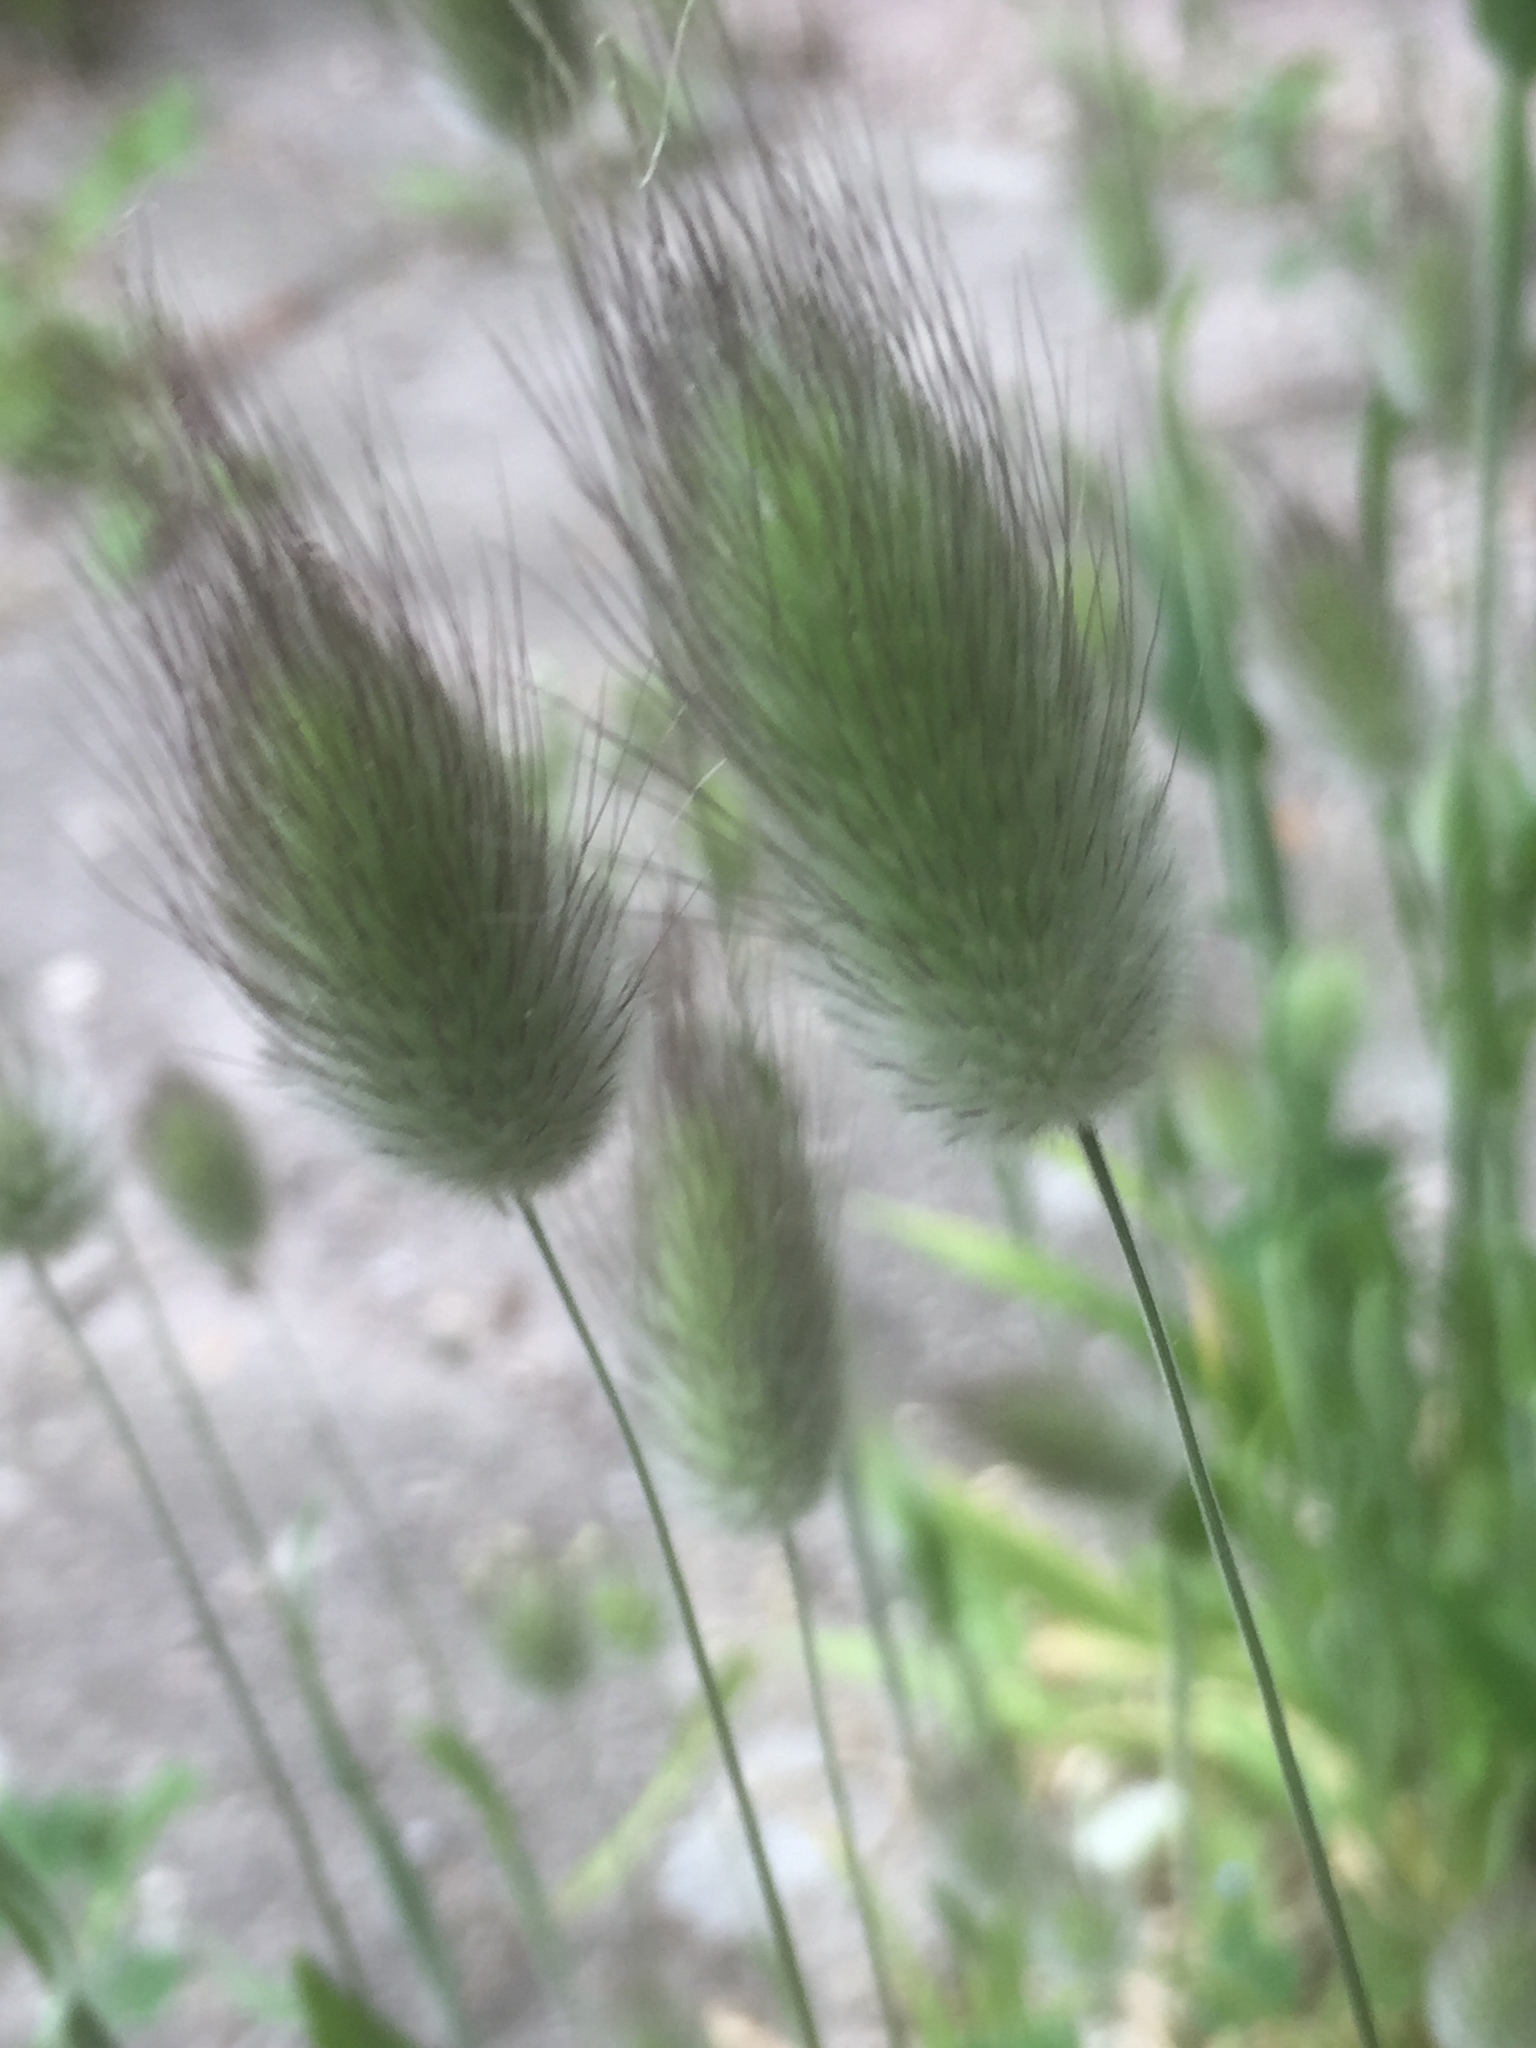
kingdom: Plantae
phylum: Tracheophyta
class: Liliopsida
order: Poales
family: Poaceae
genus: Lagurus
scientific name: Lagurus ovatus
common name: Hare's-tail
